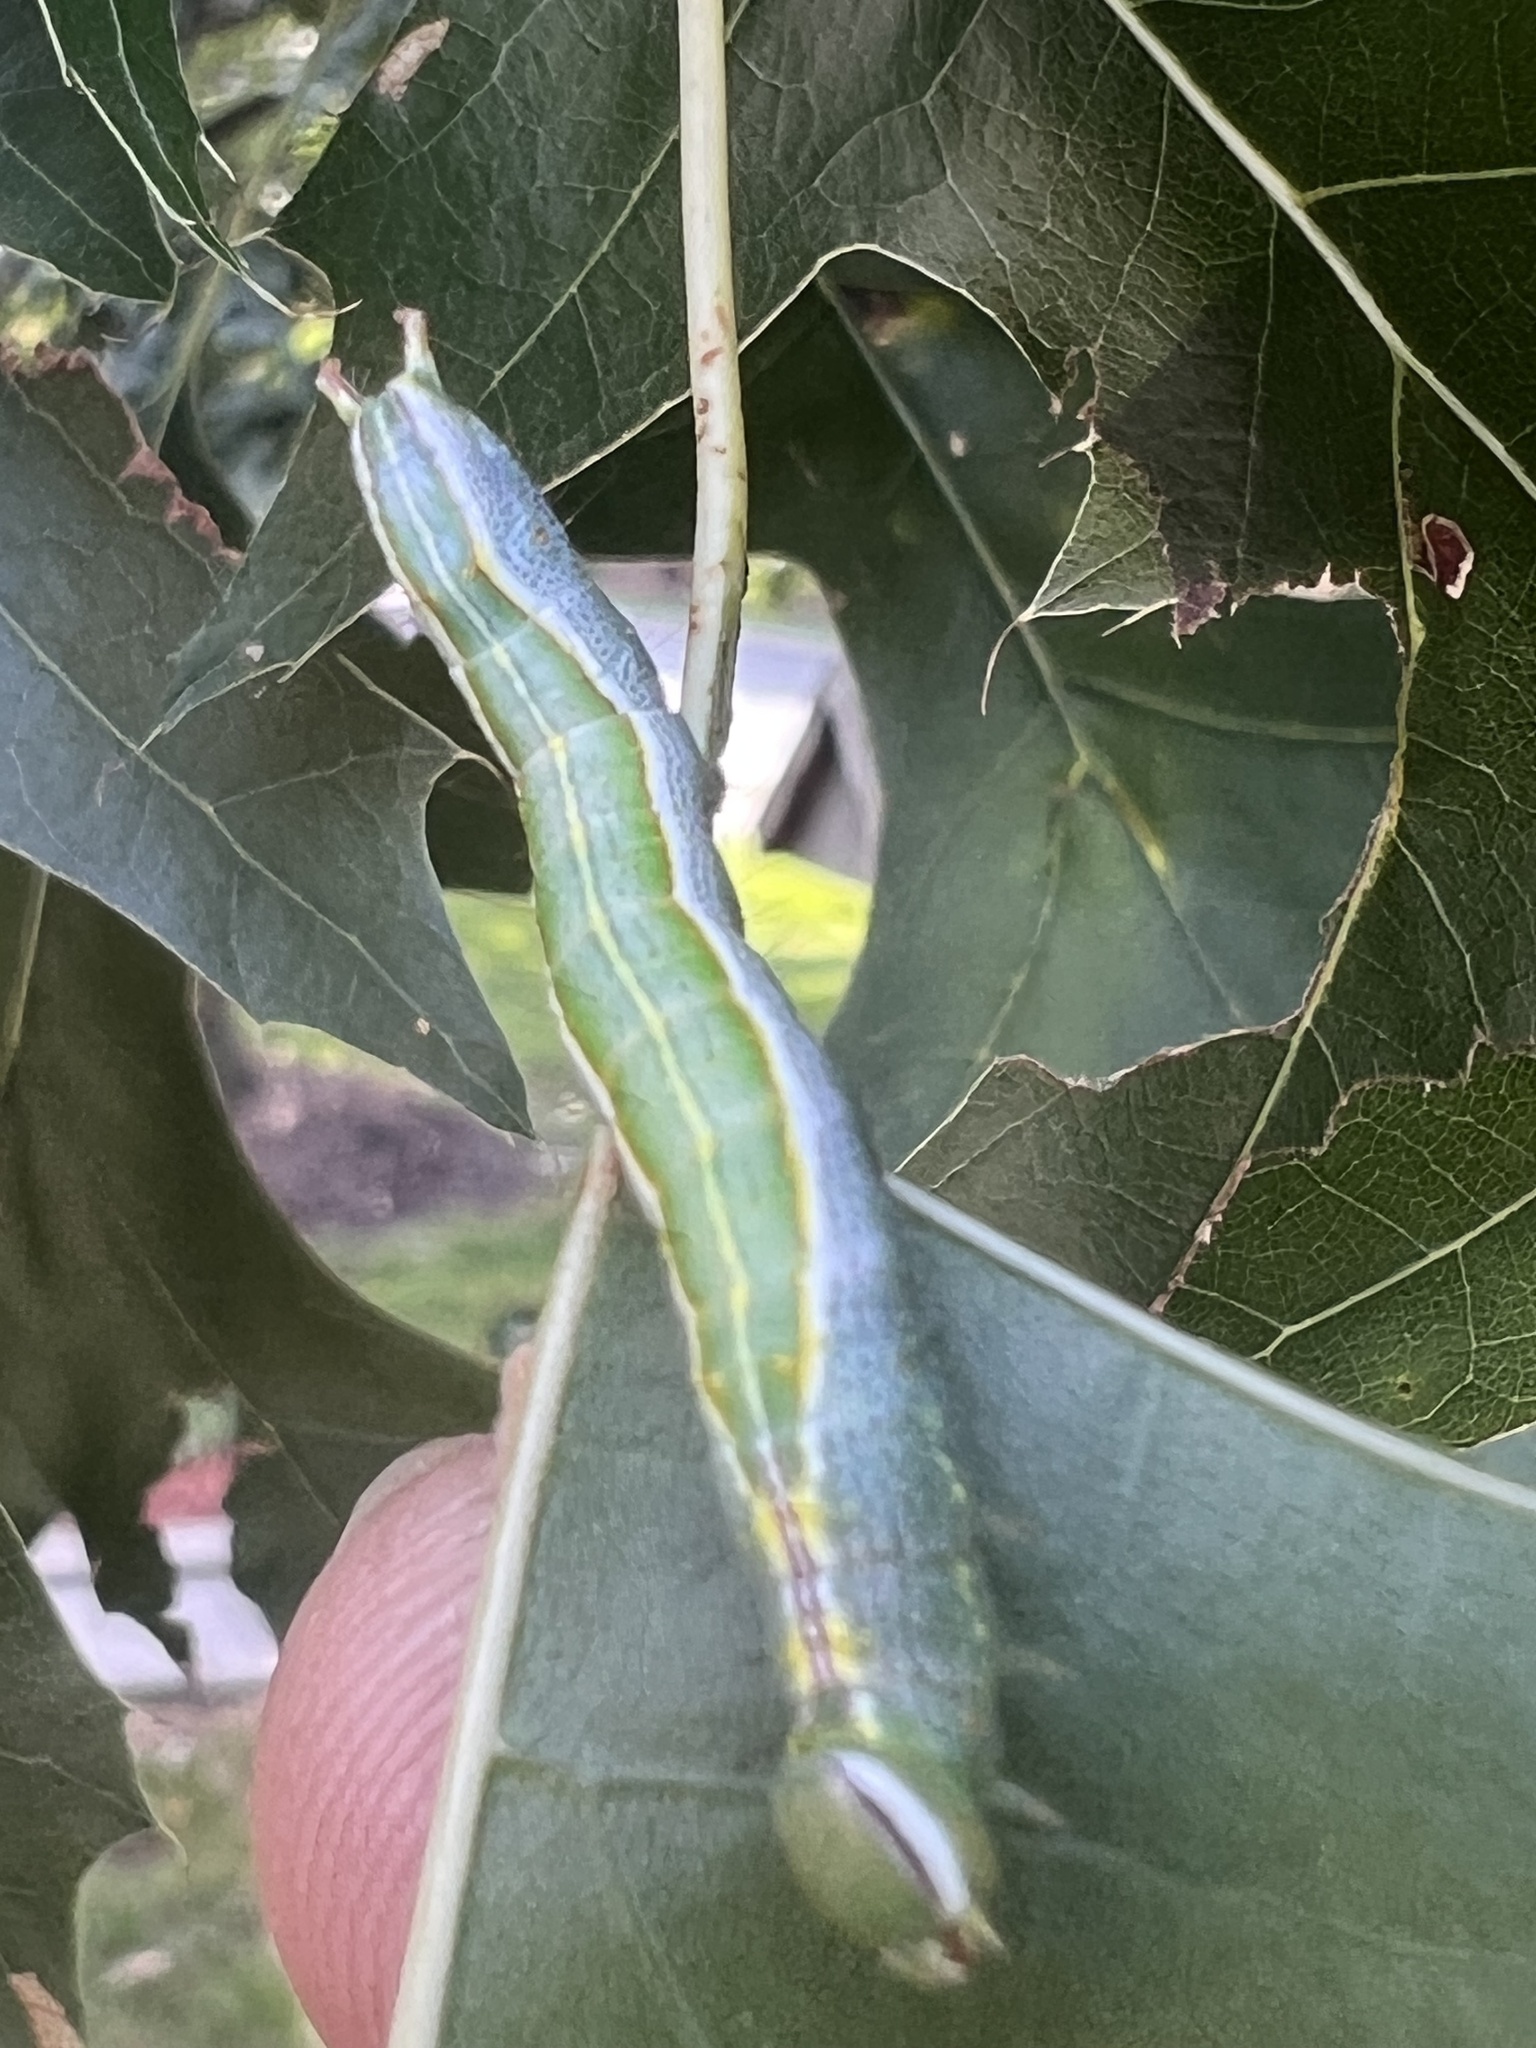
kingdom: Animalia
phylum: Arthropoda
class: Insecta
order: Lepidoptera
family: Notodontidae
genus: Lochmaeus
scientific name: Lochmaeus manteo
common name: Variable oakleaf caterpillar moth
